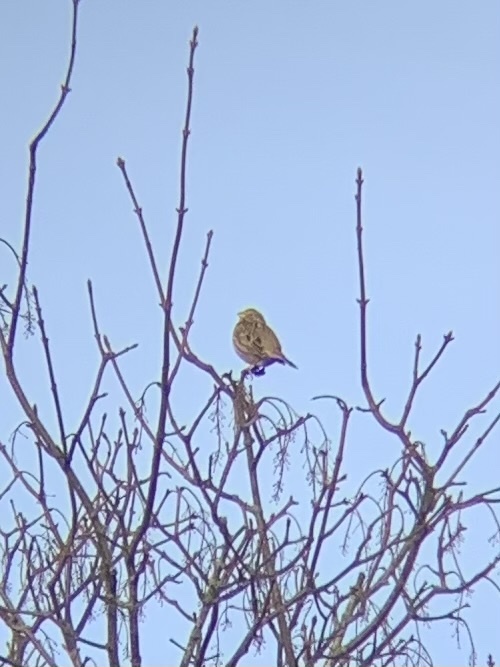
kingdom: Animalia
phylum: Chordata
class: Aves
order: Passeriformes
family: Emberizidae
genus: Emberiza
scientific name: Emberiza calandra
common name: Corn bunting
